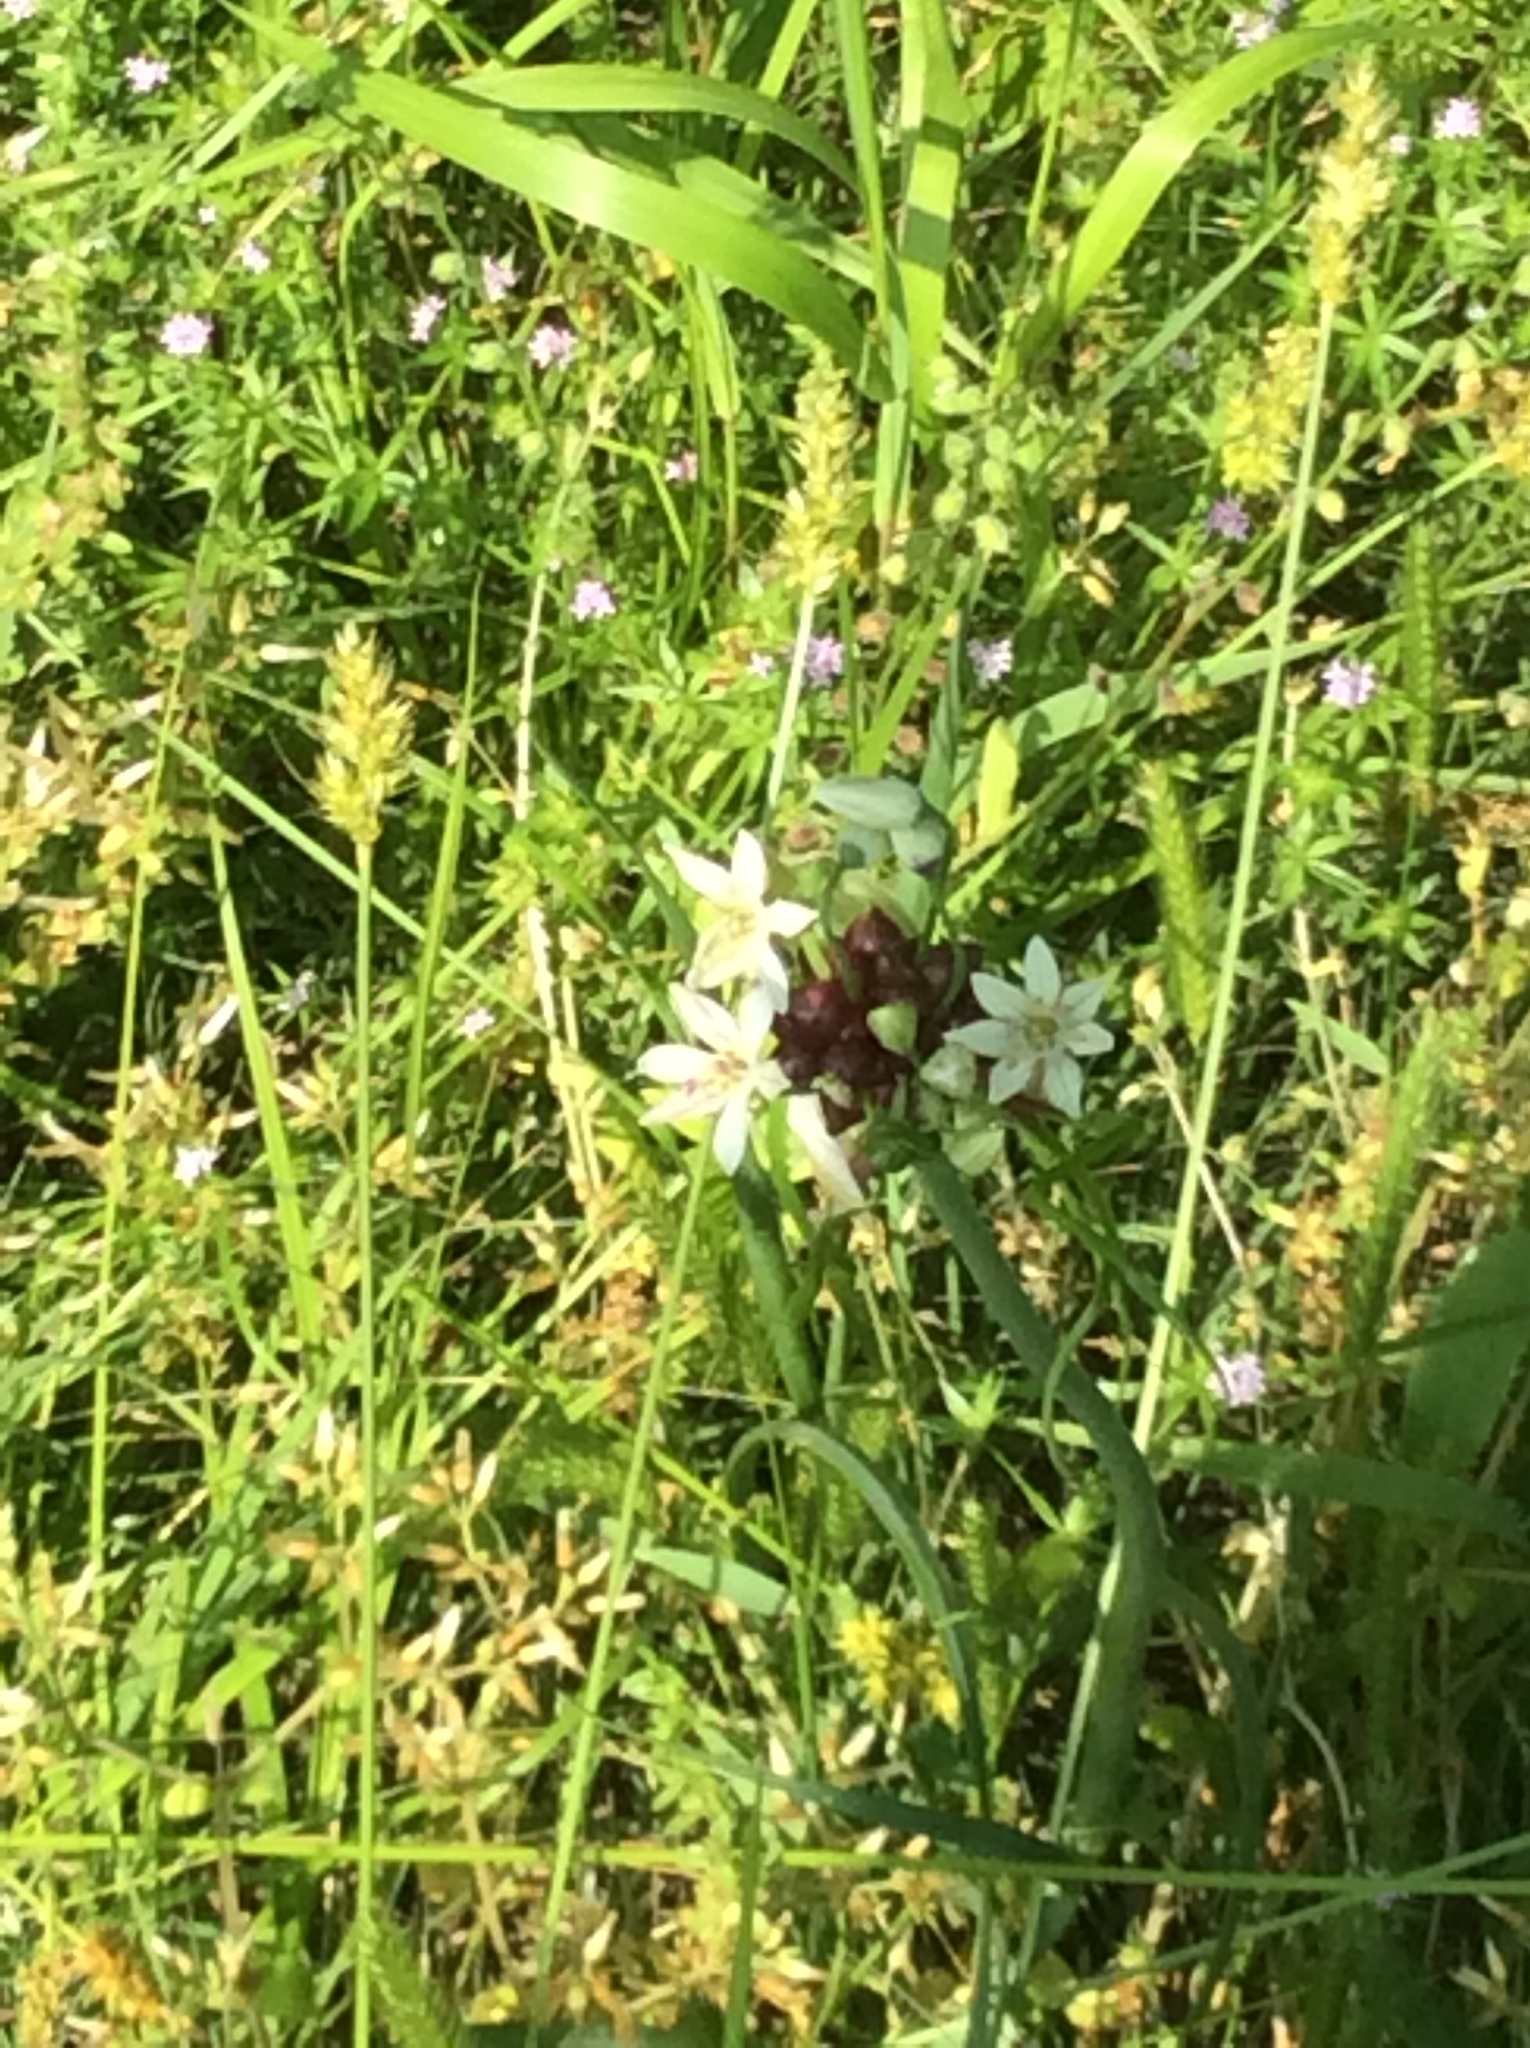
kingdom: Plantae
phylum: Tracheophyta
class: Liliopsida
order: Asparagales
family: Amaryllidaceae
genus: Allium
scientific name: Allium canadense
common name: Meadow garlic
